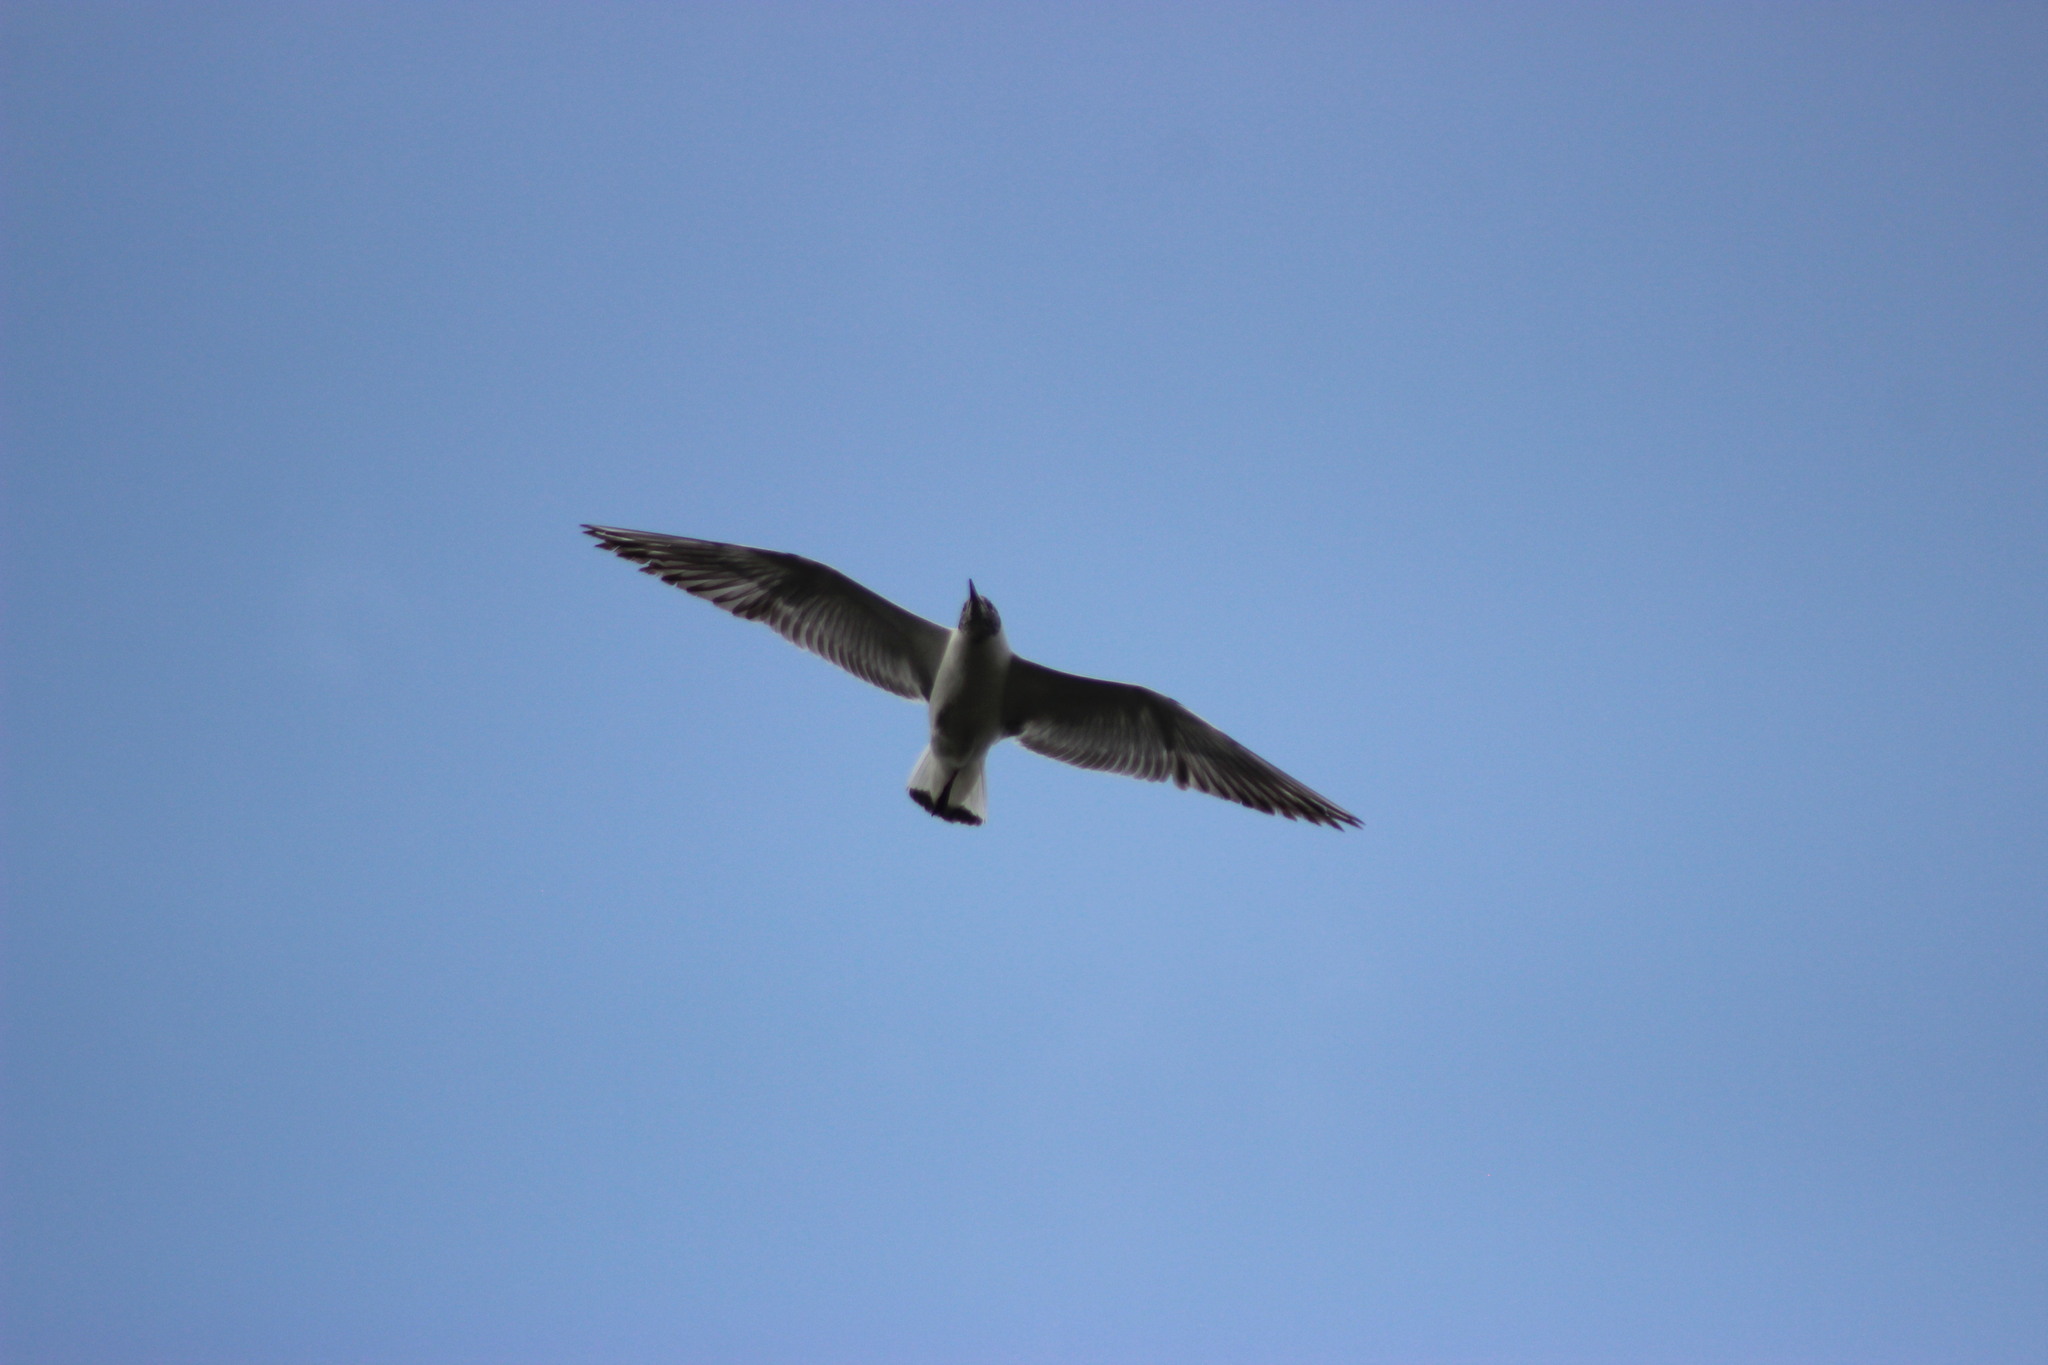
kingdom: Animalia
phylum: Chordata
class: Aves
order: Charadriiformes
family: Laridae
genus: Chroicocephalus
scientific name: Chroicocephalus ridibundus
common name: Black-headed gull
